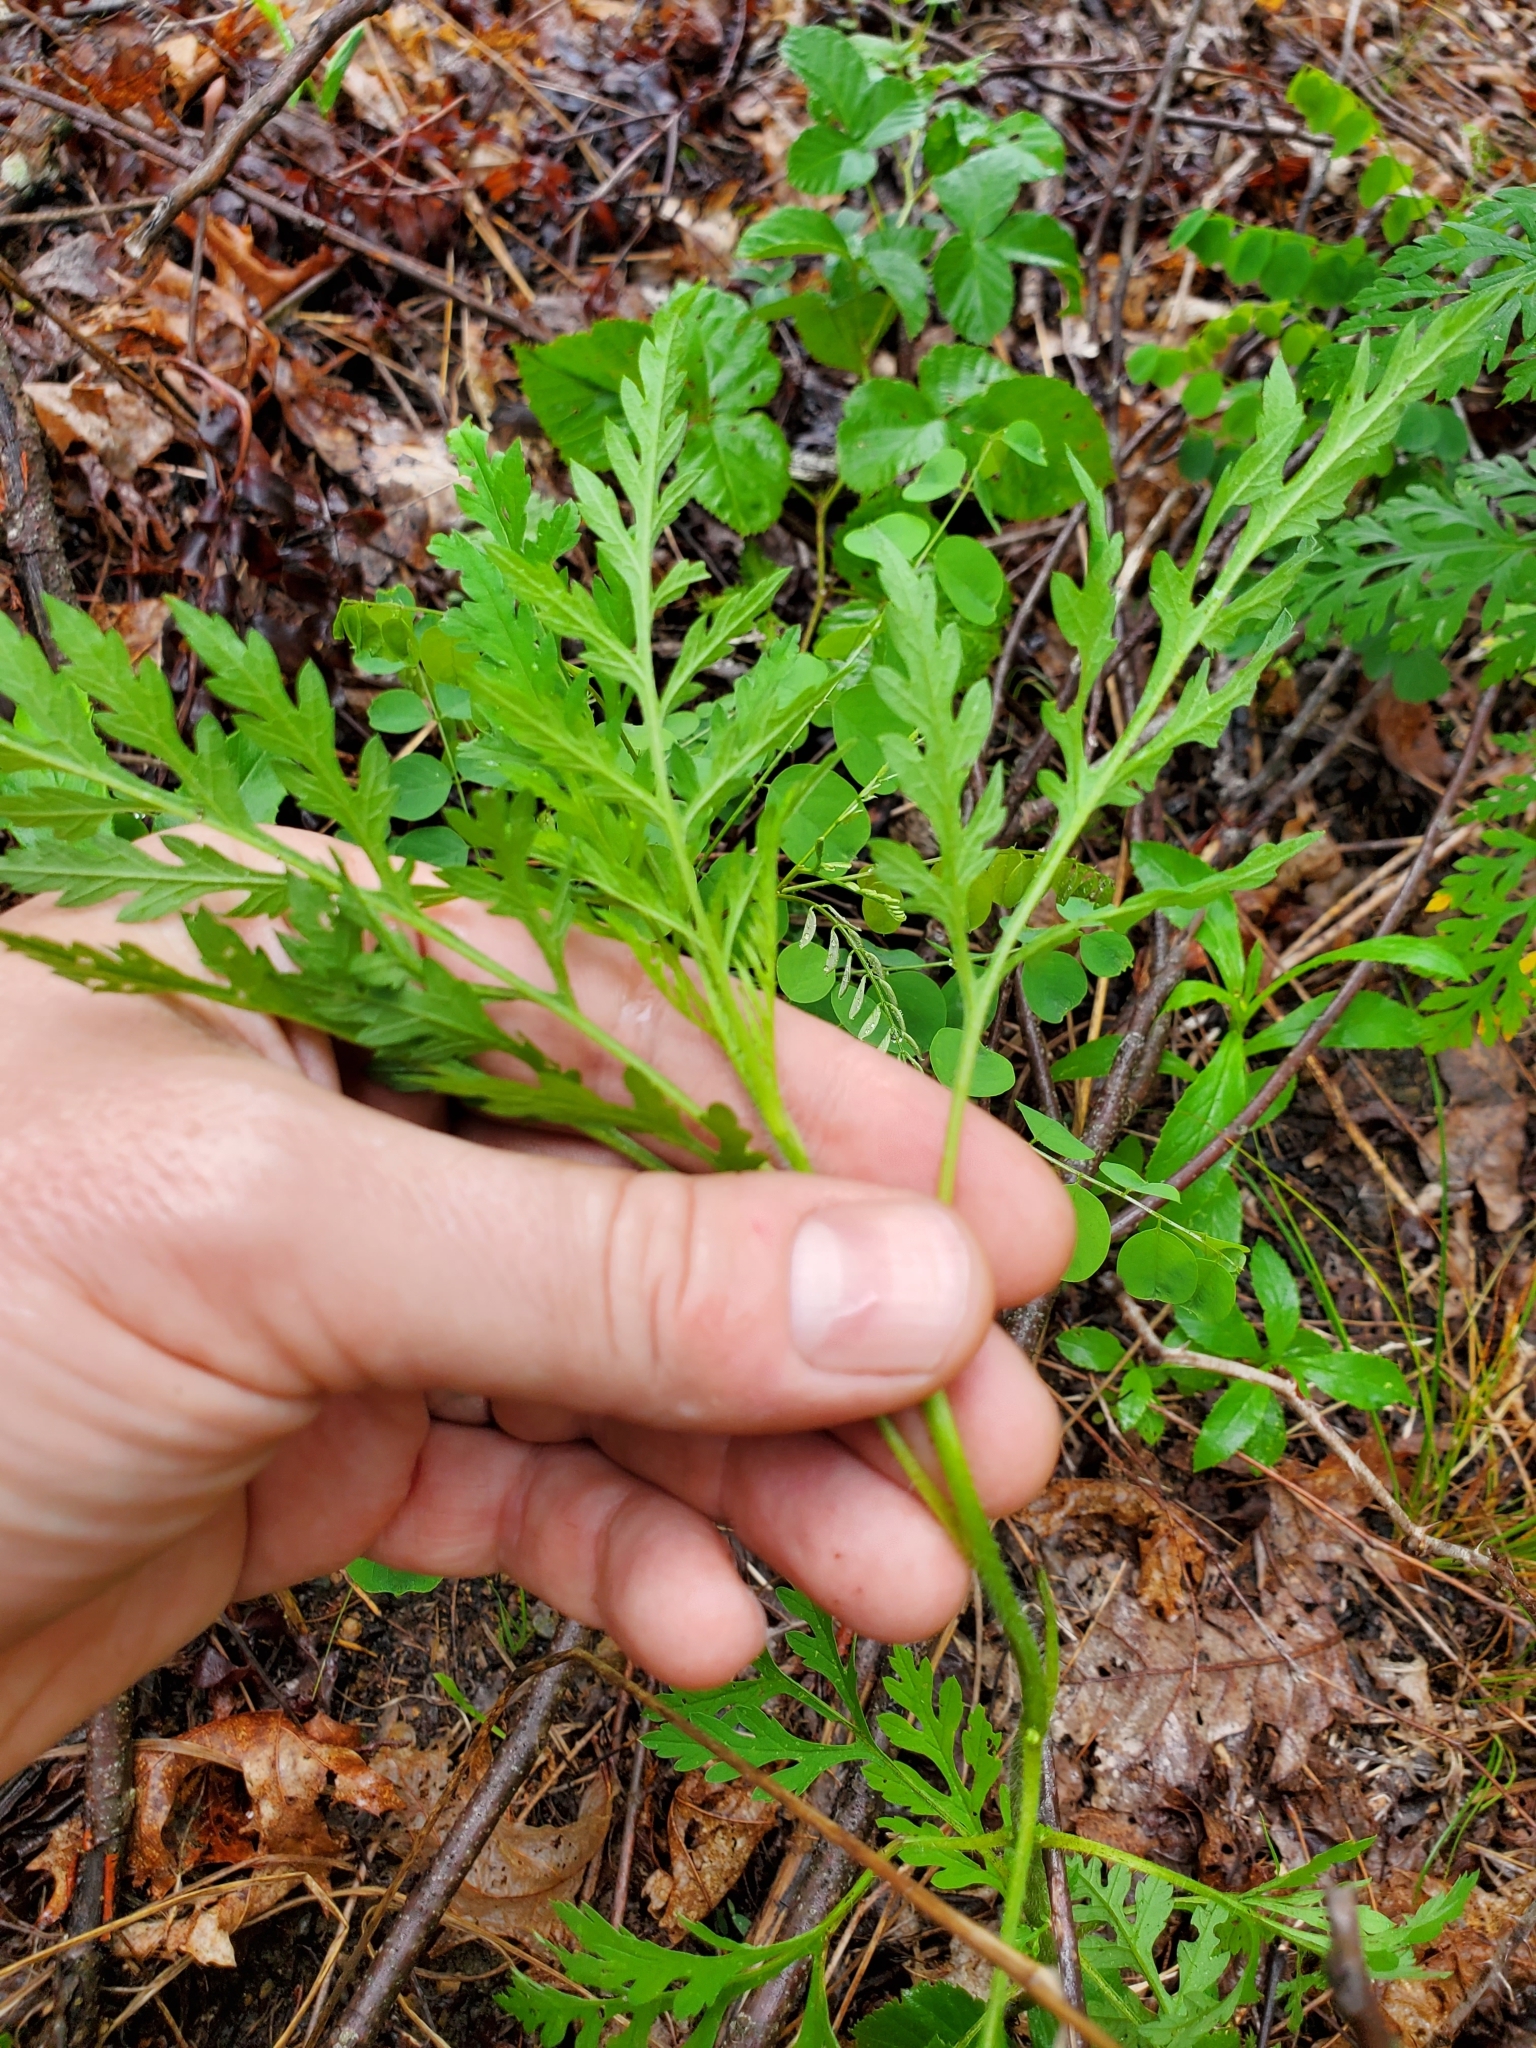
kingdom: Plantae
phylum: Tracheophyta
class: Magnoliopsida
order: Asterales
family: Asteraceae
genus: Ambrosia
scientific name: Ambrosia artemisiifolia
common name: Annual ragweed
